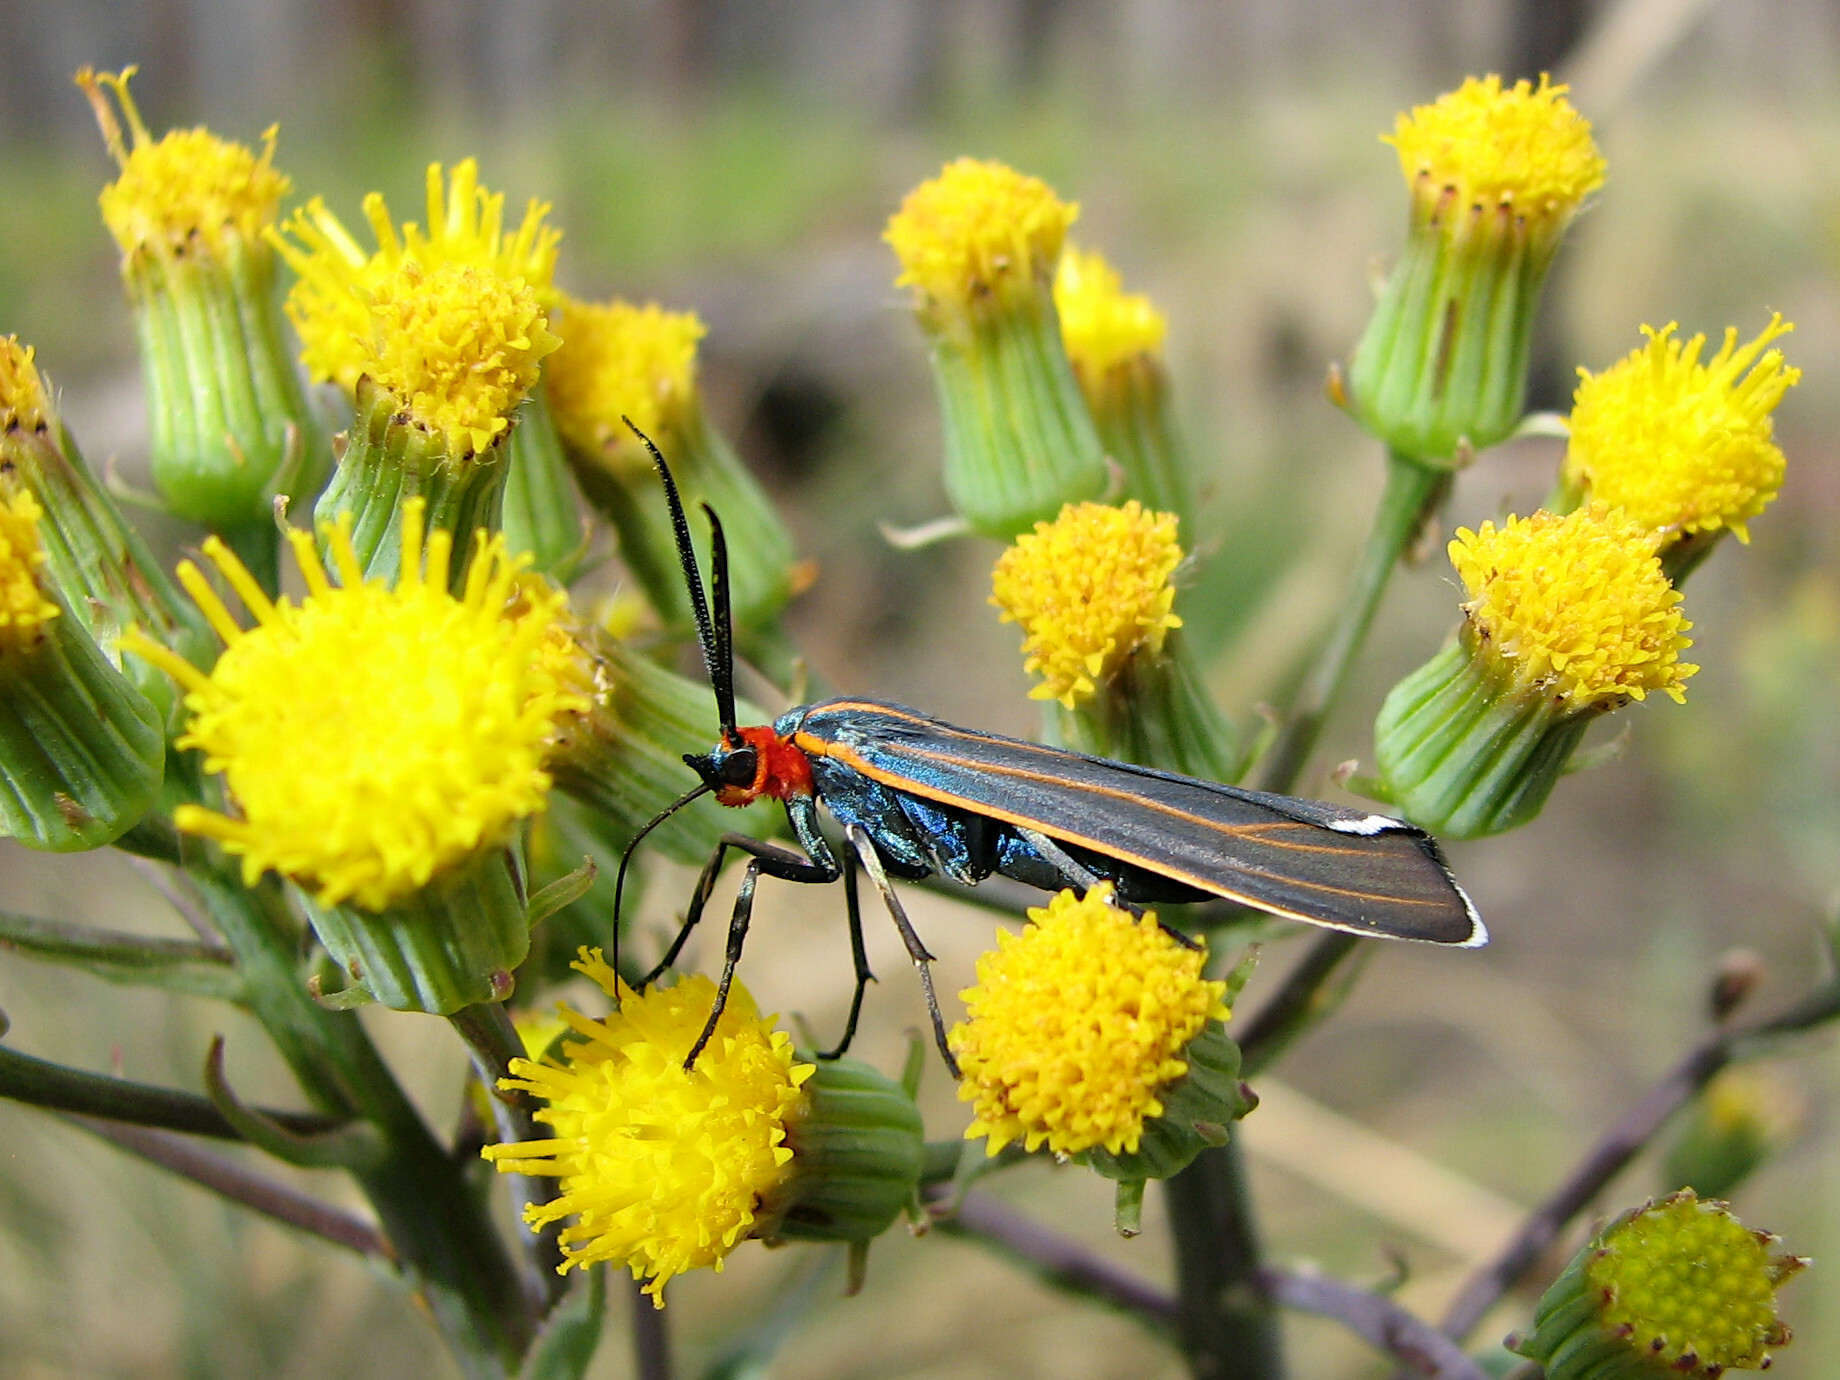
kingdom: Animalia
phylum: Arthropoda
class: Insecta
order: Lepidoptera
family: Erebidae
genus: Ctenucha
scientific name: Ctenucha venosa
